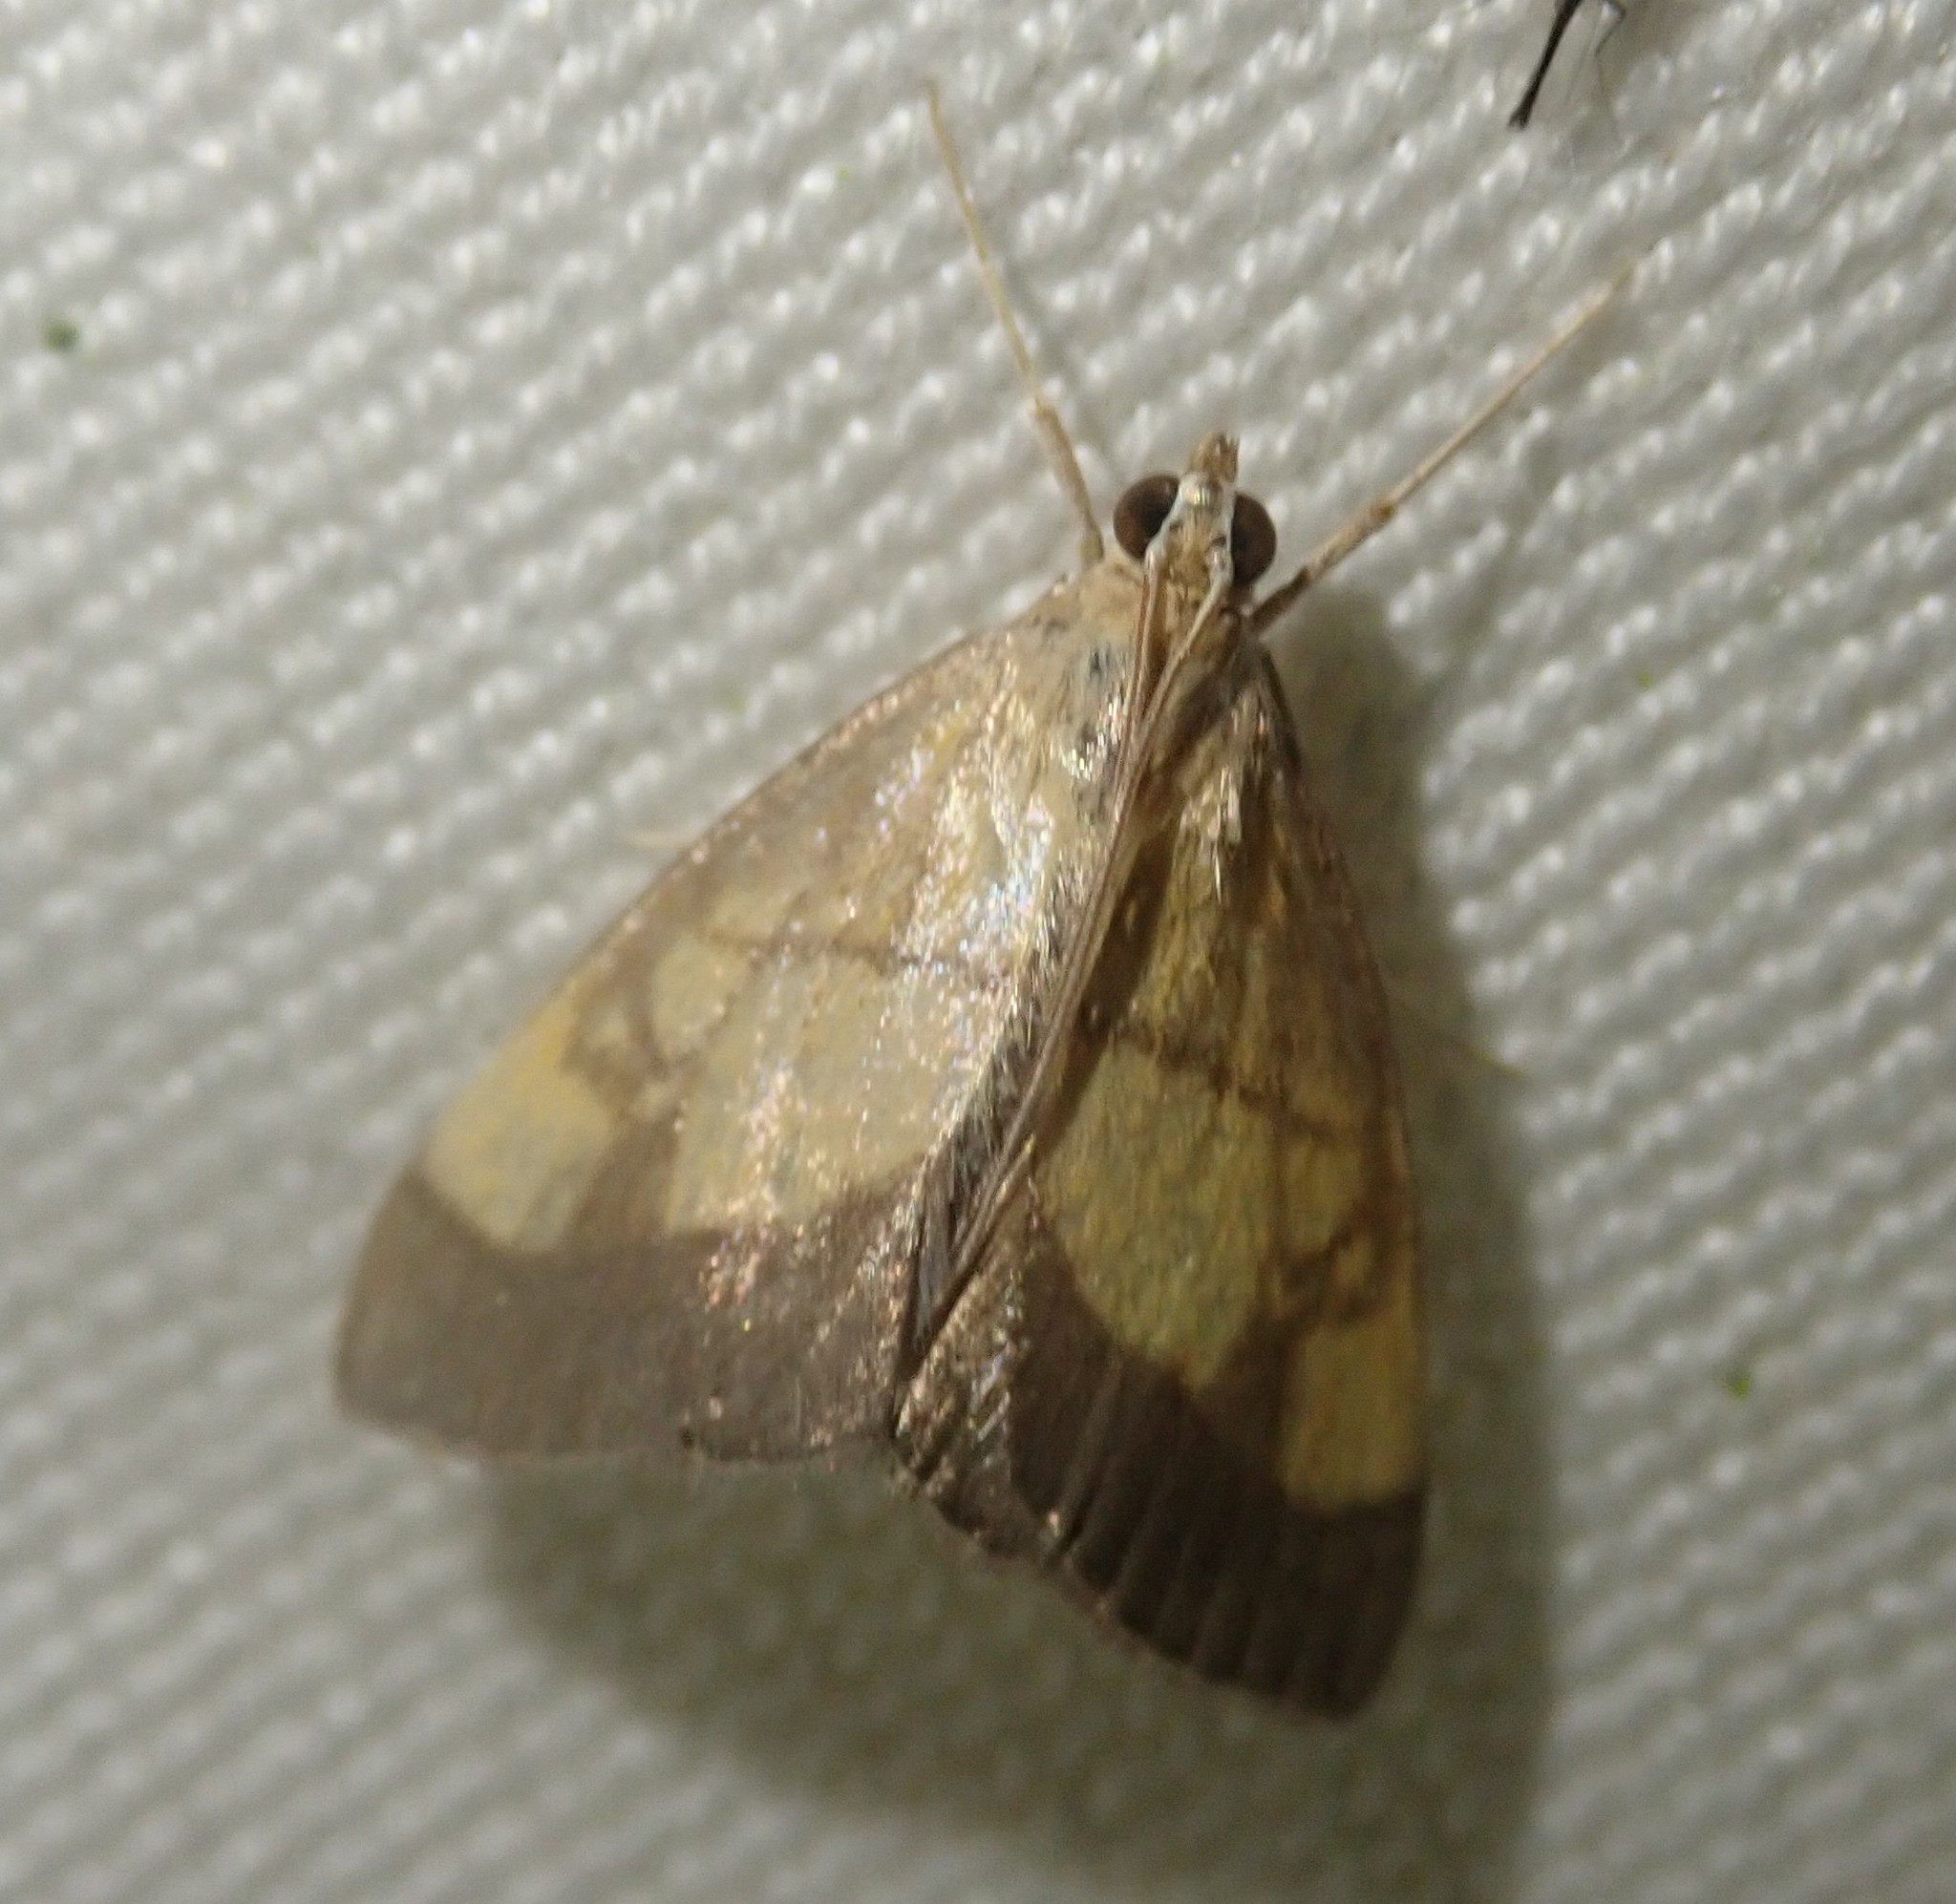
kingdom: Animalia
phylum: Arthropoda
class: Insecta
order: Lepidoptera
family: Crambidae
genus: Evergestis
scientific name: Evergestis limbata
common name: Dark bordered pearl
